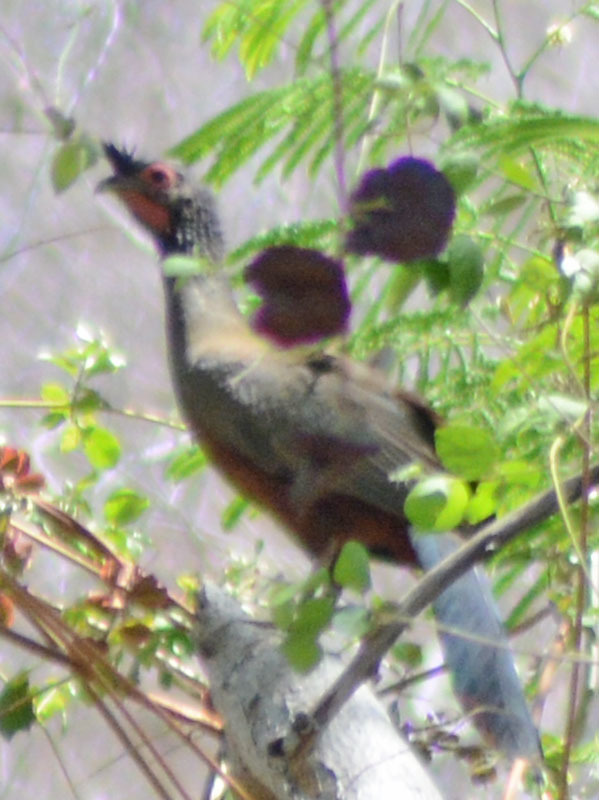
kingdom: Animalia
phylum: Chordata
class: Aves
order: Galliformes
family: Cracidae
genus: Ortalis
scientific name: Ortalis wagleri
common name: Rufous-bellied chachalaca
